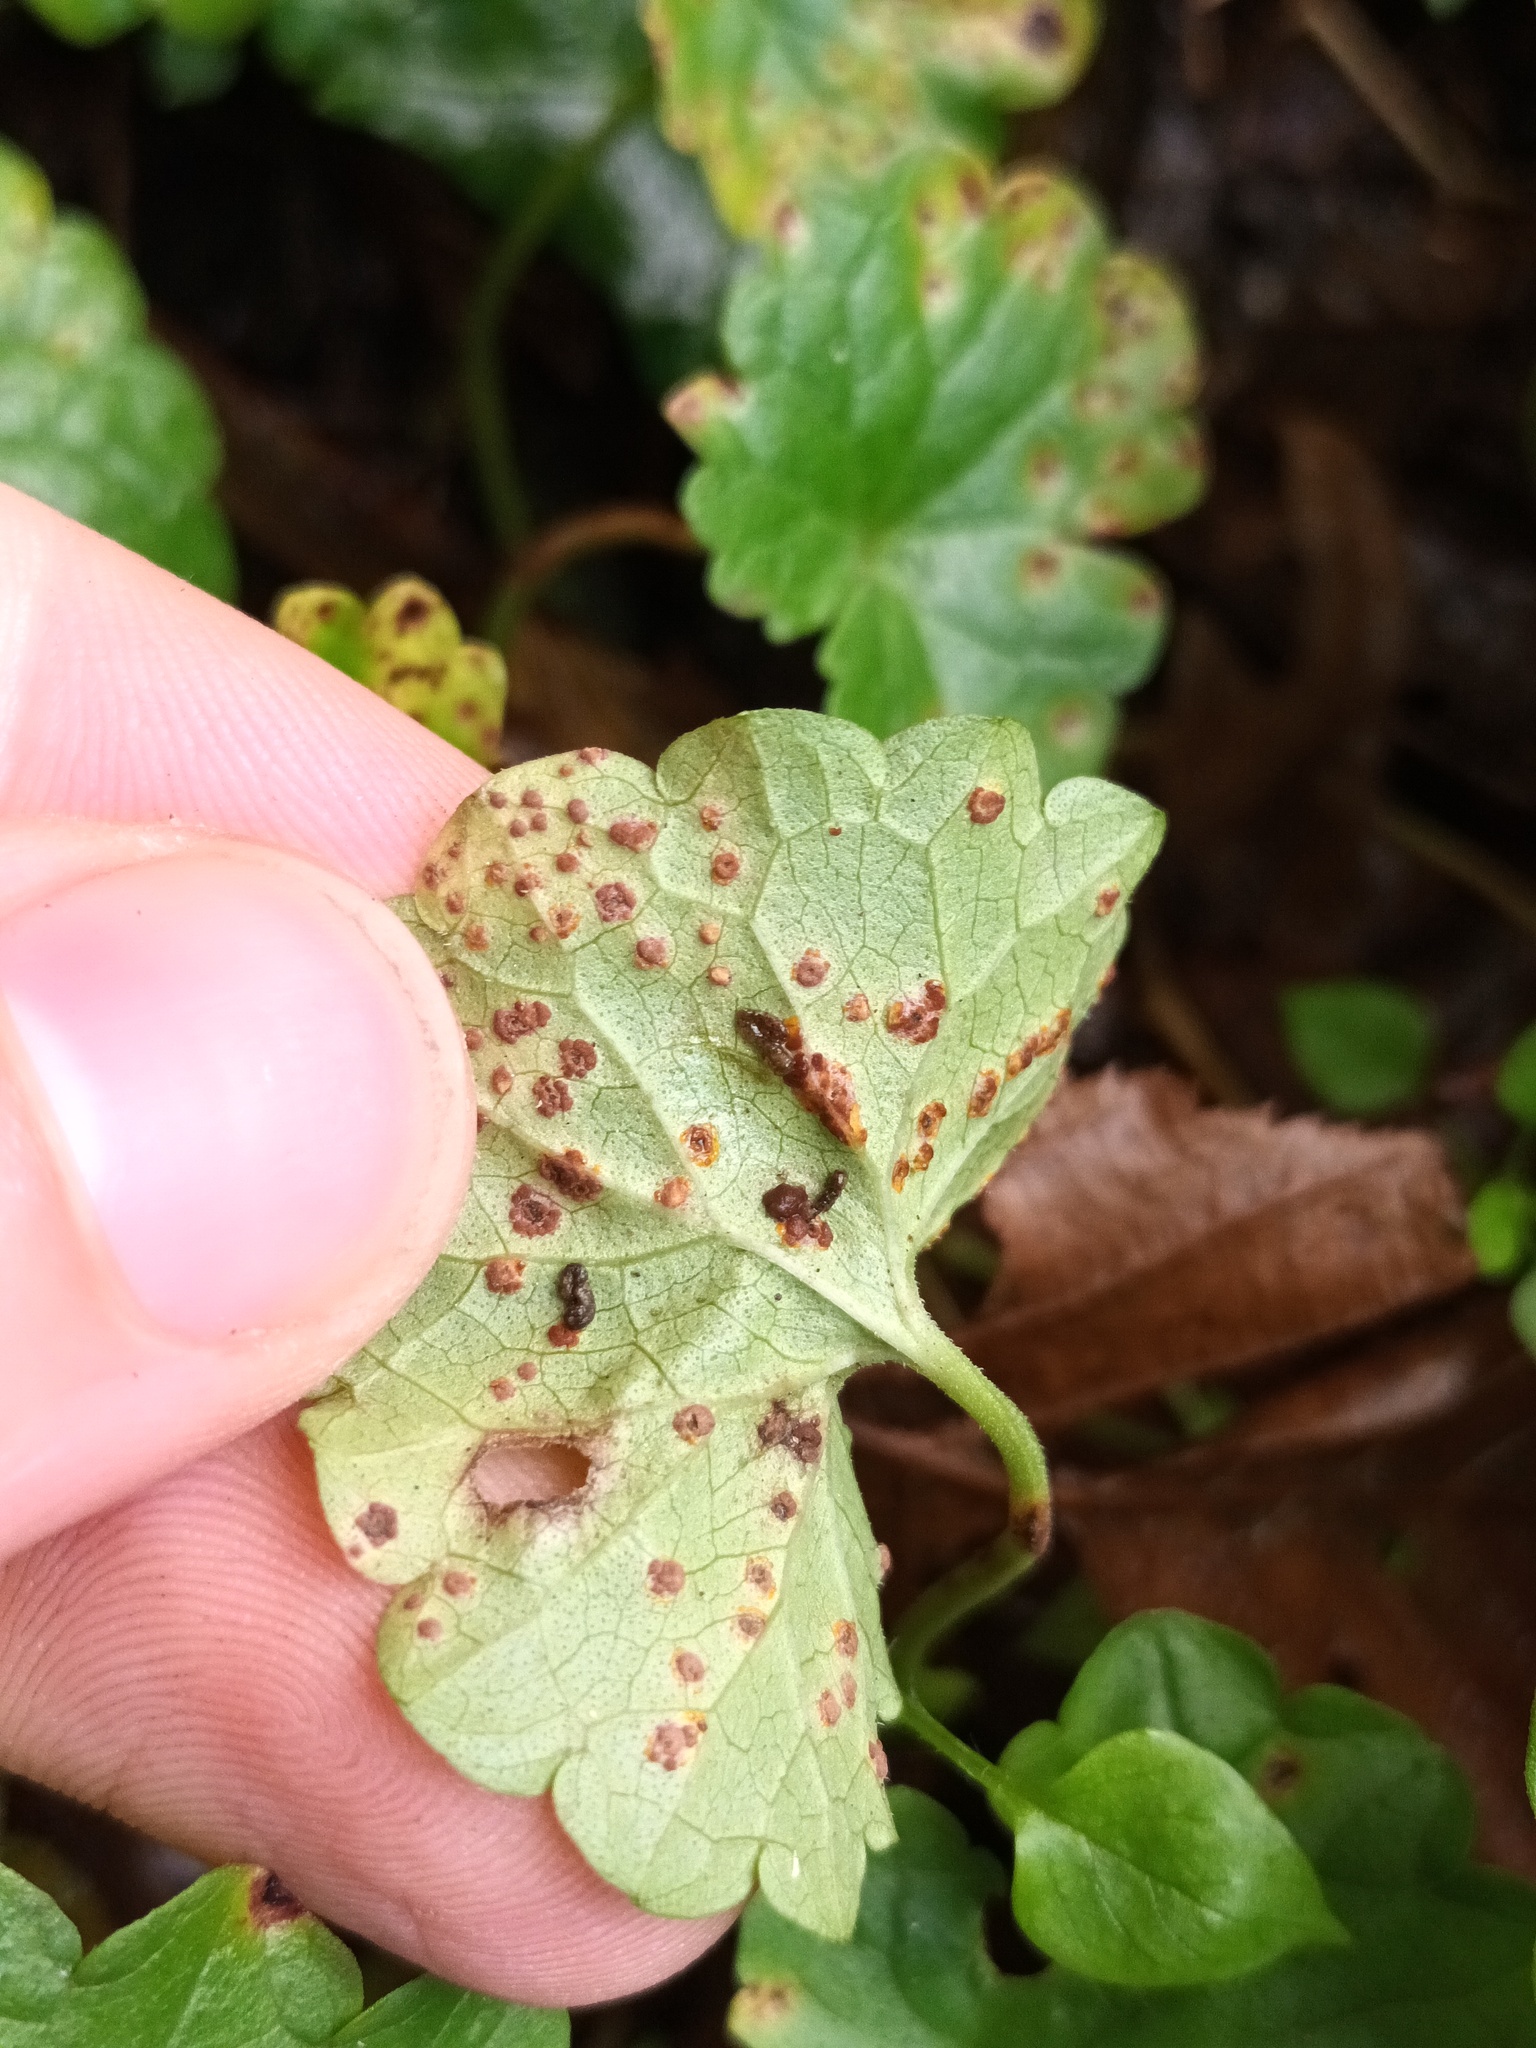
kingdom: Fungi
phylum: Basidiomycota
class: Pucciniomycetes
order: Pucciniales
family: Pucciniaceae
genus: Puccinia
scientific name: Puccinia glechomatis
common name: Ground ivy rust
